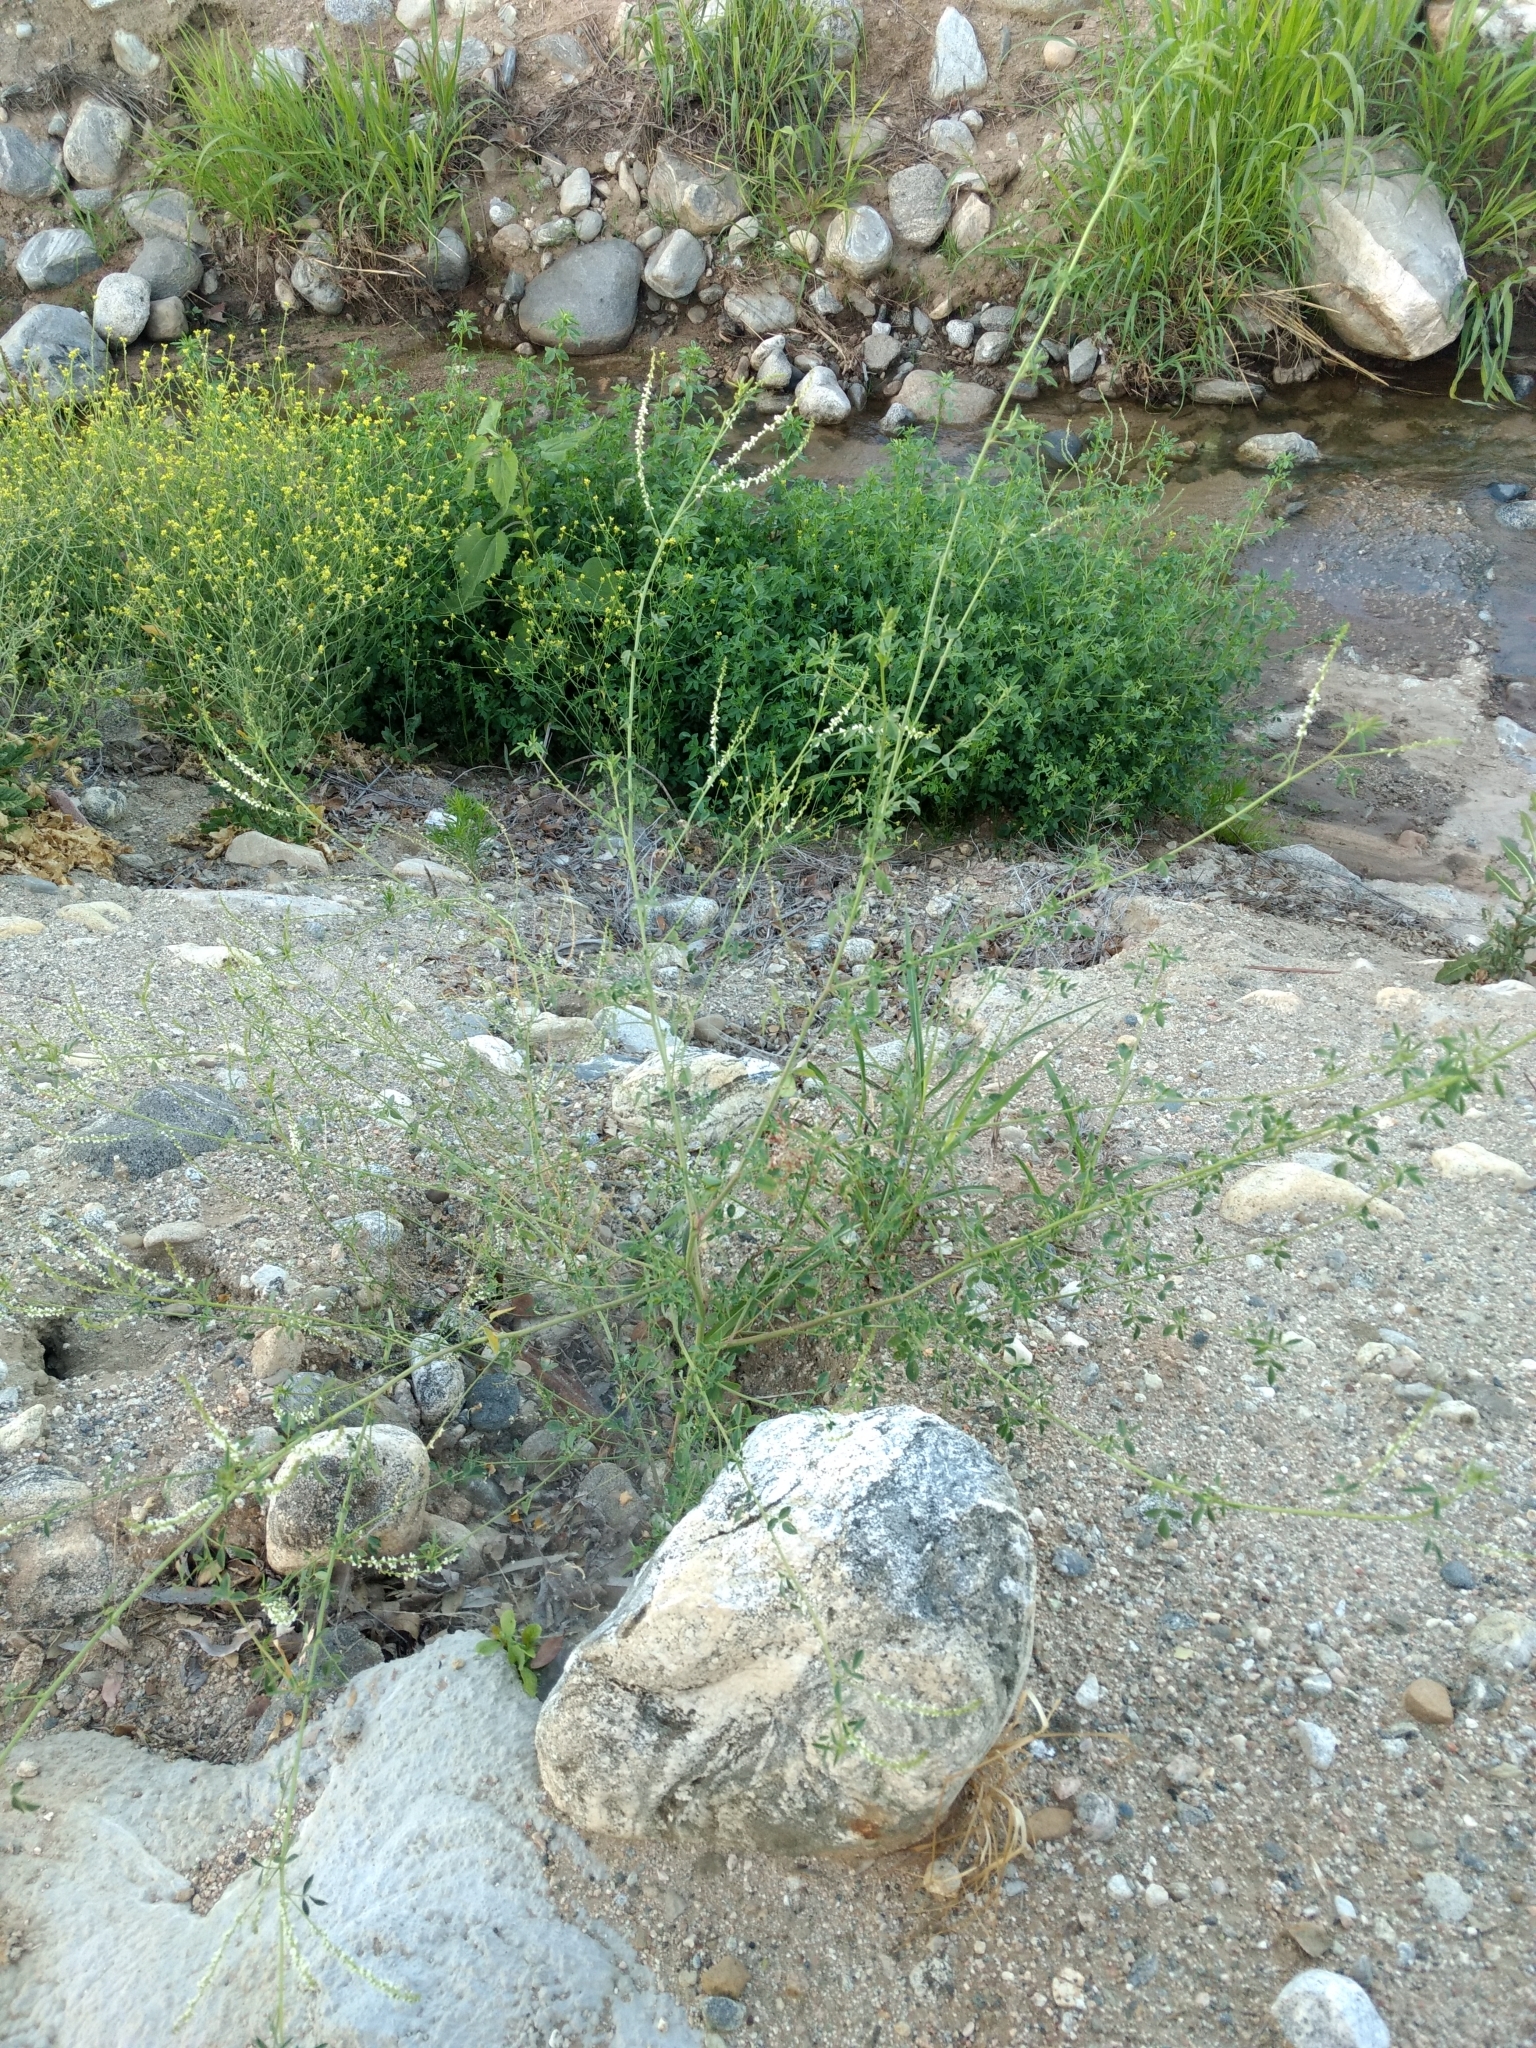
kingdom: Plantae
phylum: Tracheophyta
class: Magnoliopsida
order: Fabales
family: Fabaceae
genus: Melilotus
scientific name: Melilotus albus
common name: White melilot
